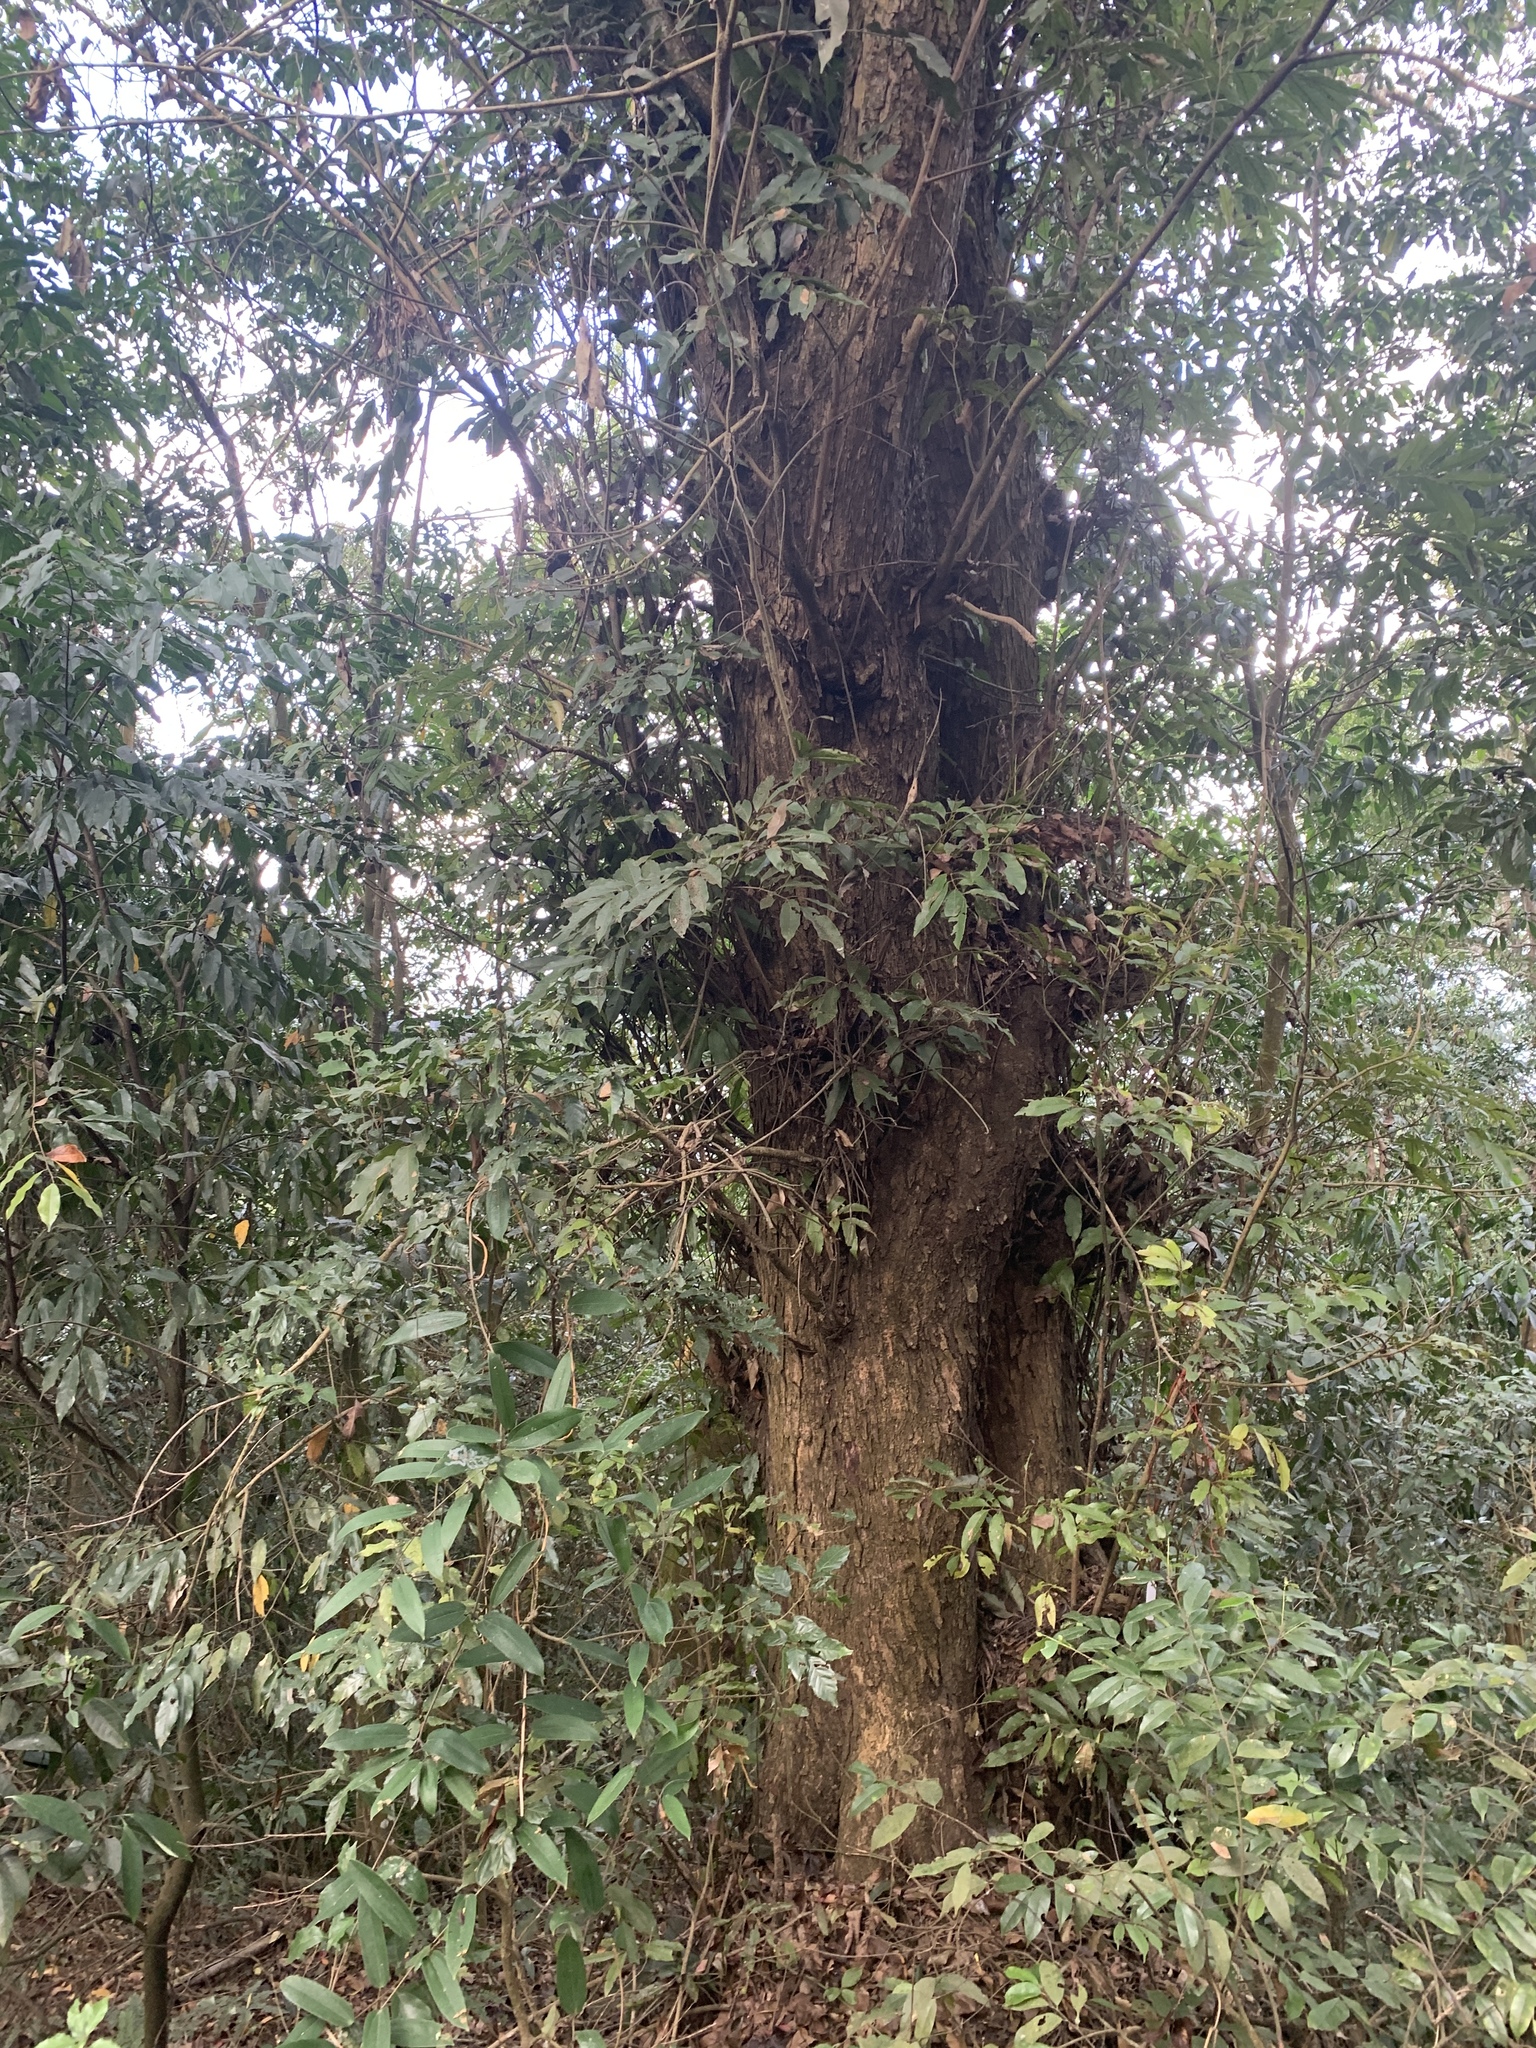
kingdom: Plantae
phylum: Tracheophyta
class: Magnoliopsida
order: Fagales
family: Juglandaceae
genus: Engelhardia
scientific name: Engelhardia roxburghiana
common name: Golden malay beam
